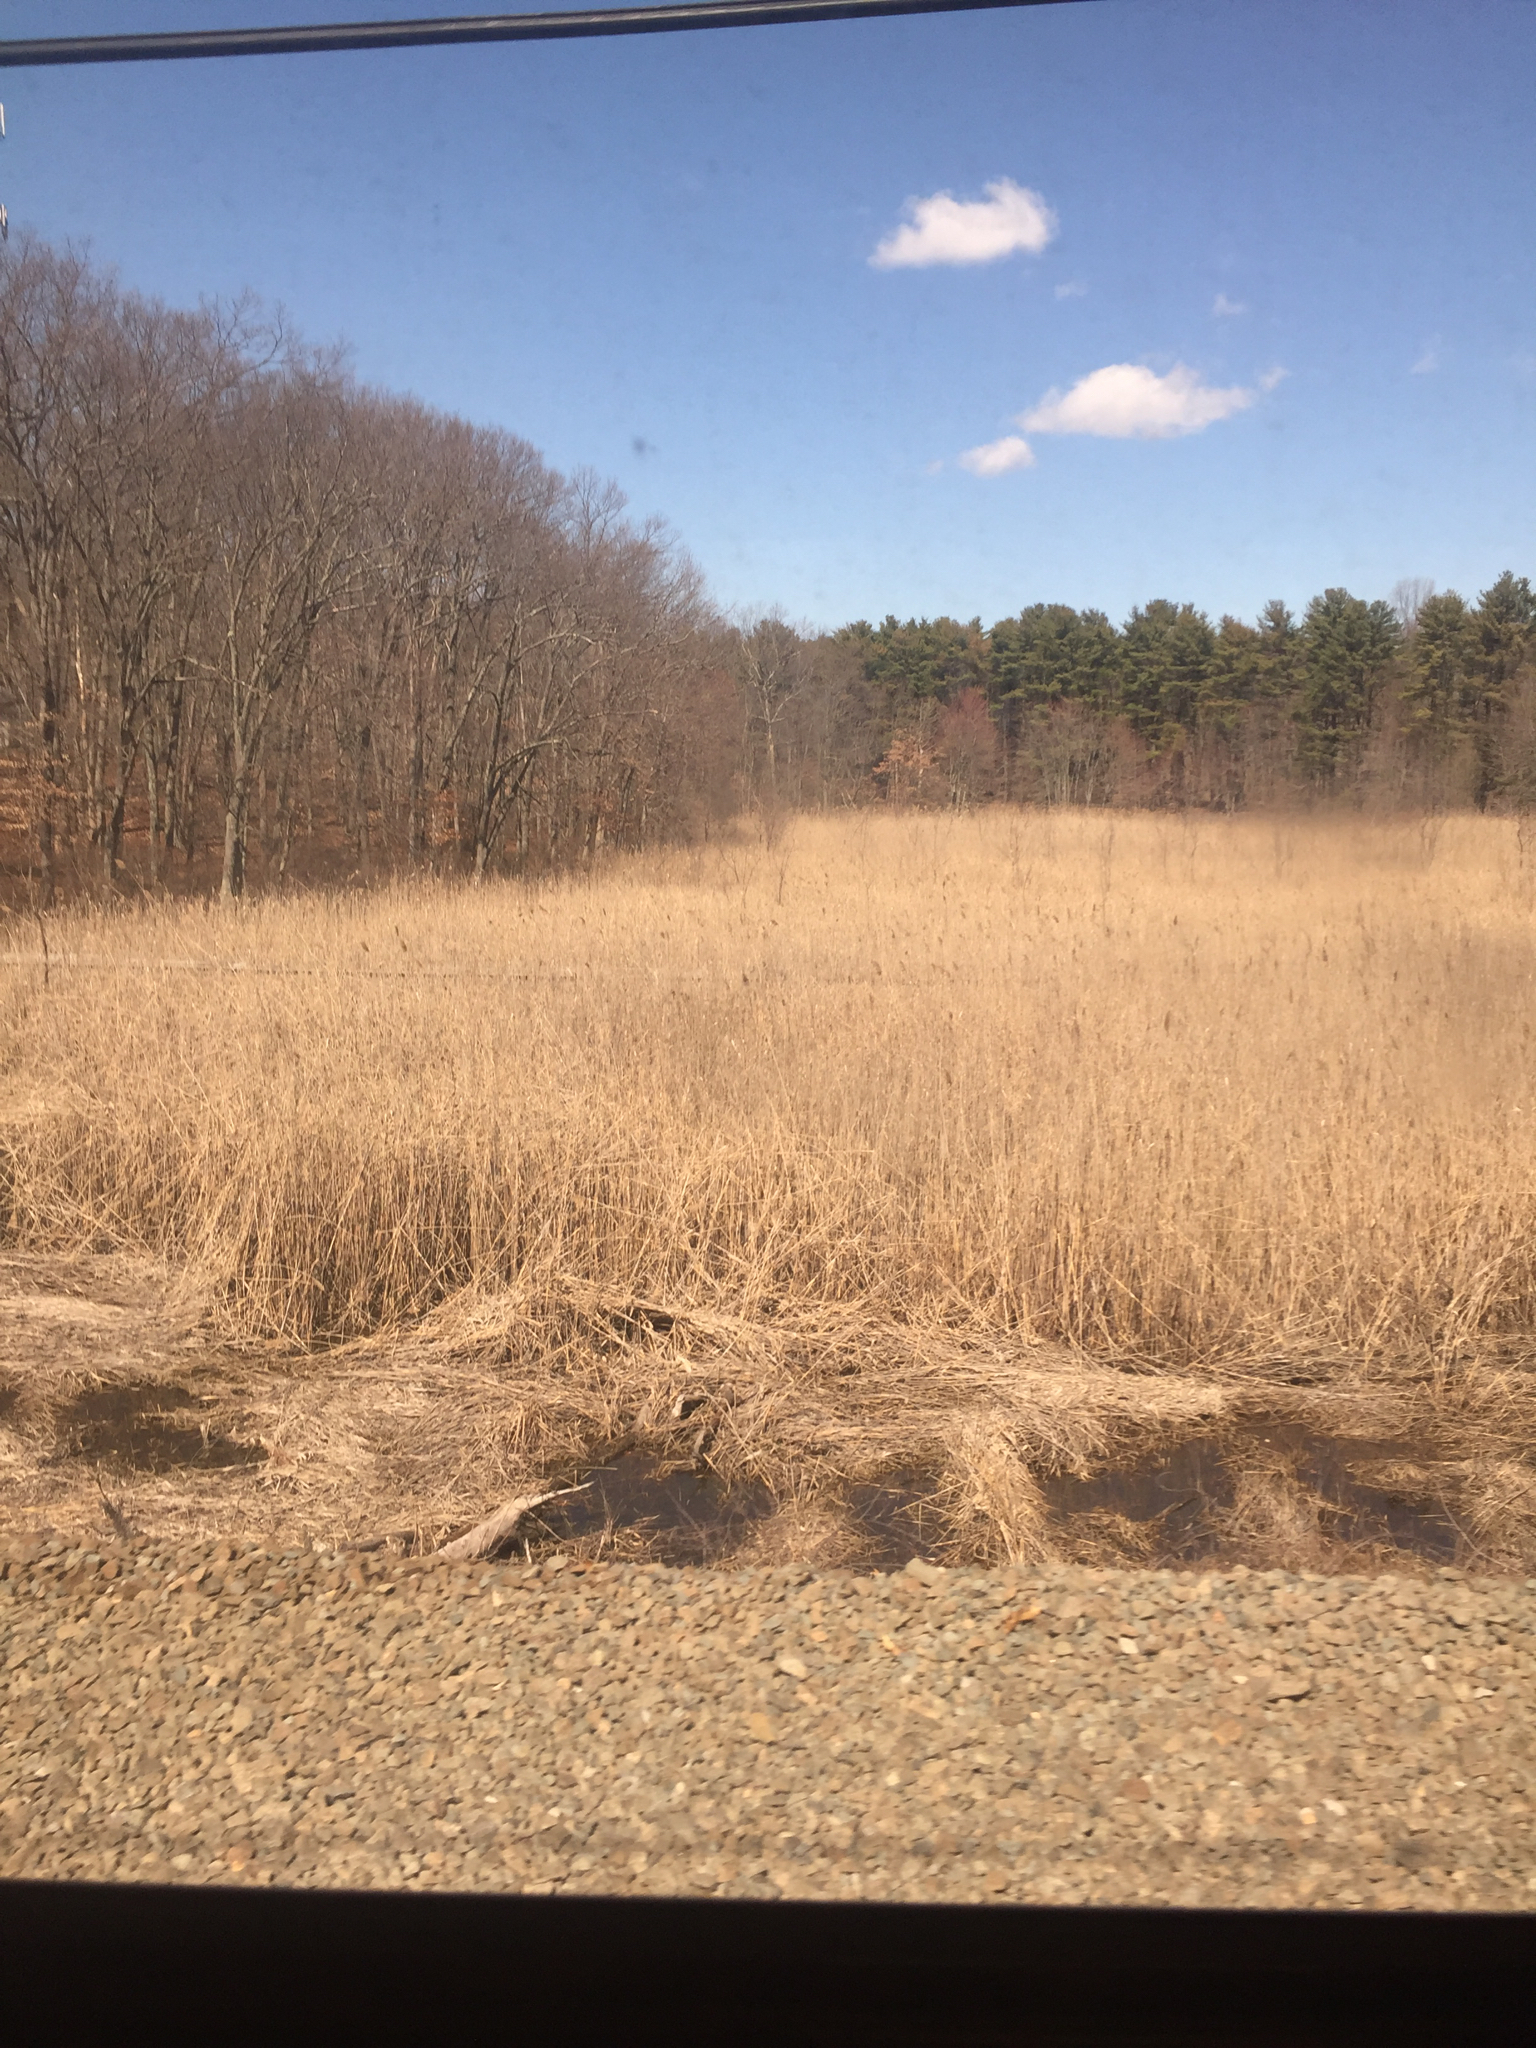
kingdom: Plantae
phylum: Tracheophyta
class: Liliopsida
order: Poales
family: Poaceae
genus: Phragmites
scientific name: Phragmites australis
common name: Common reed
